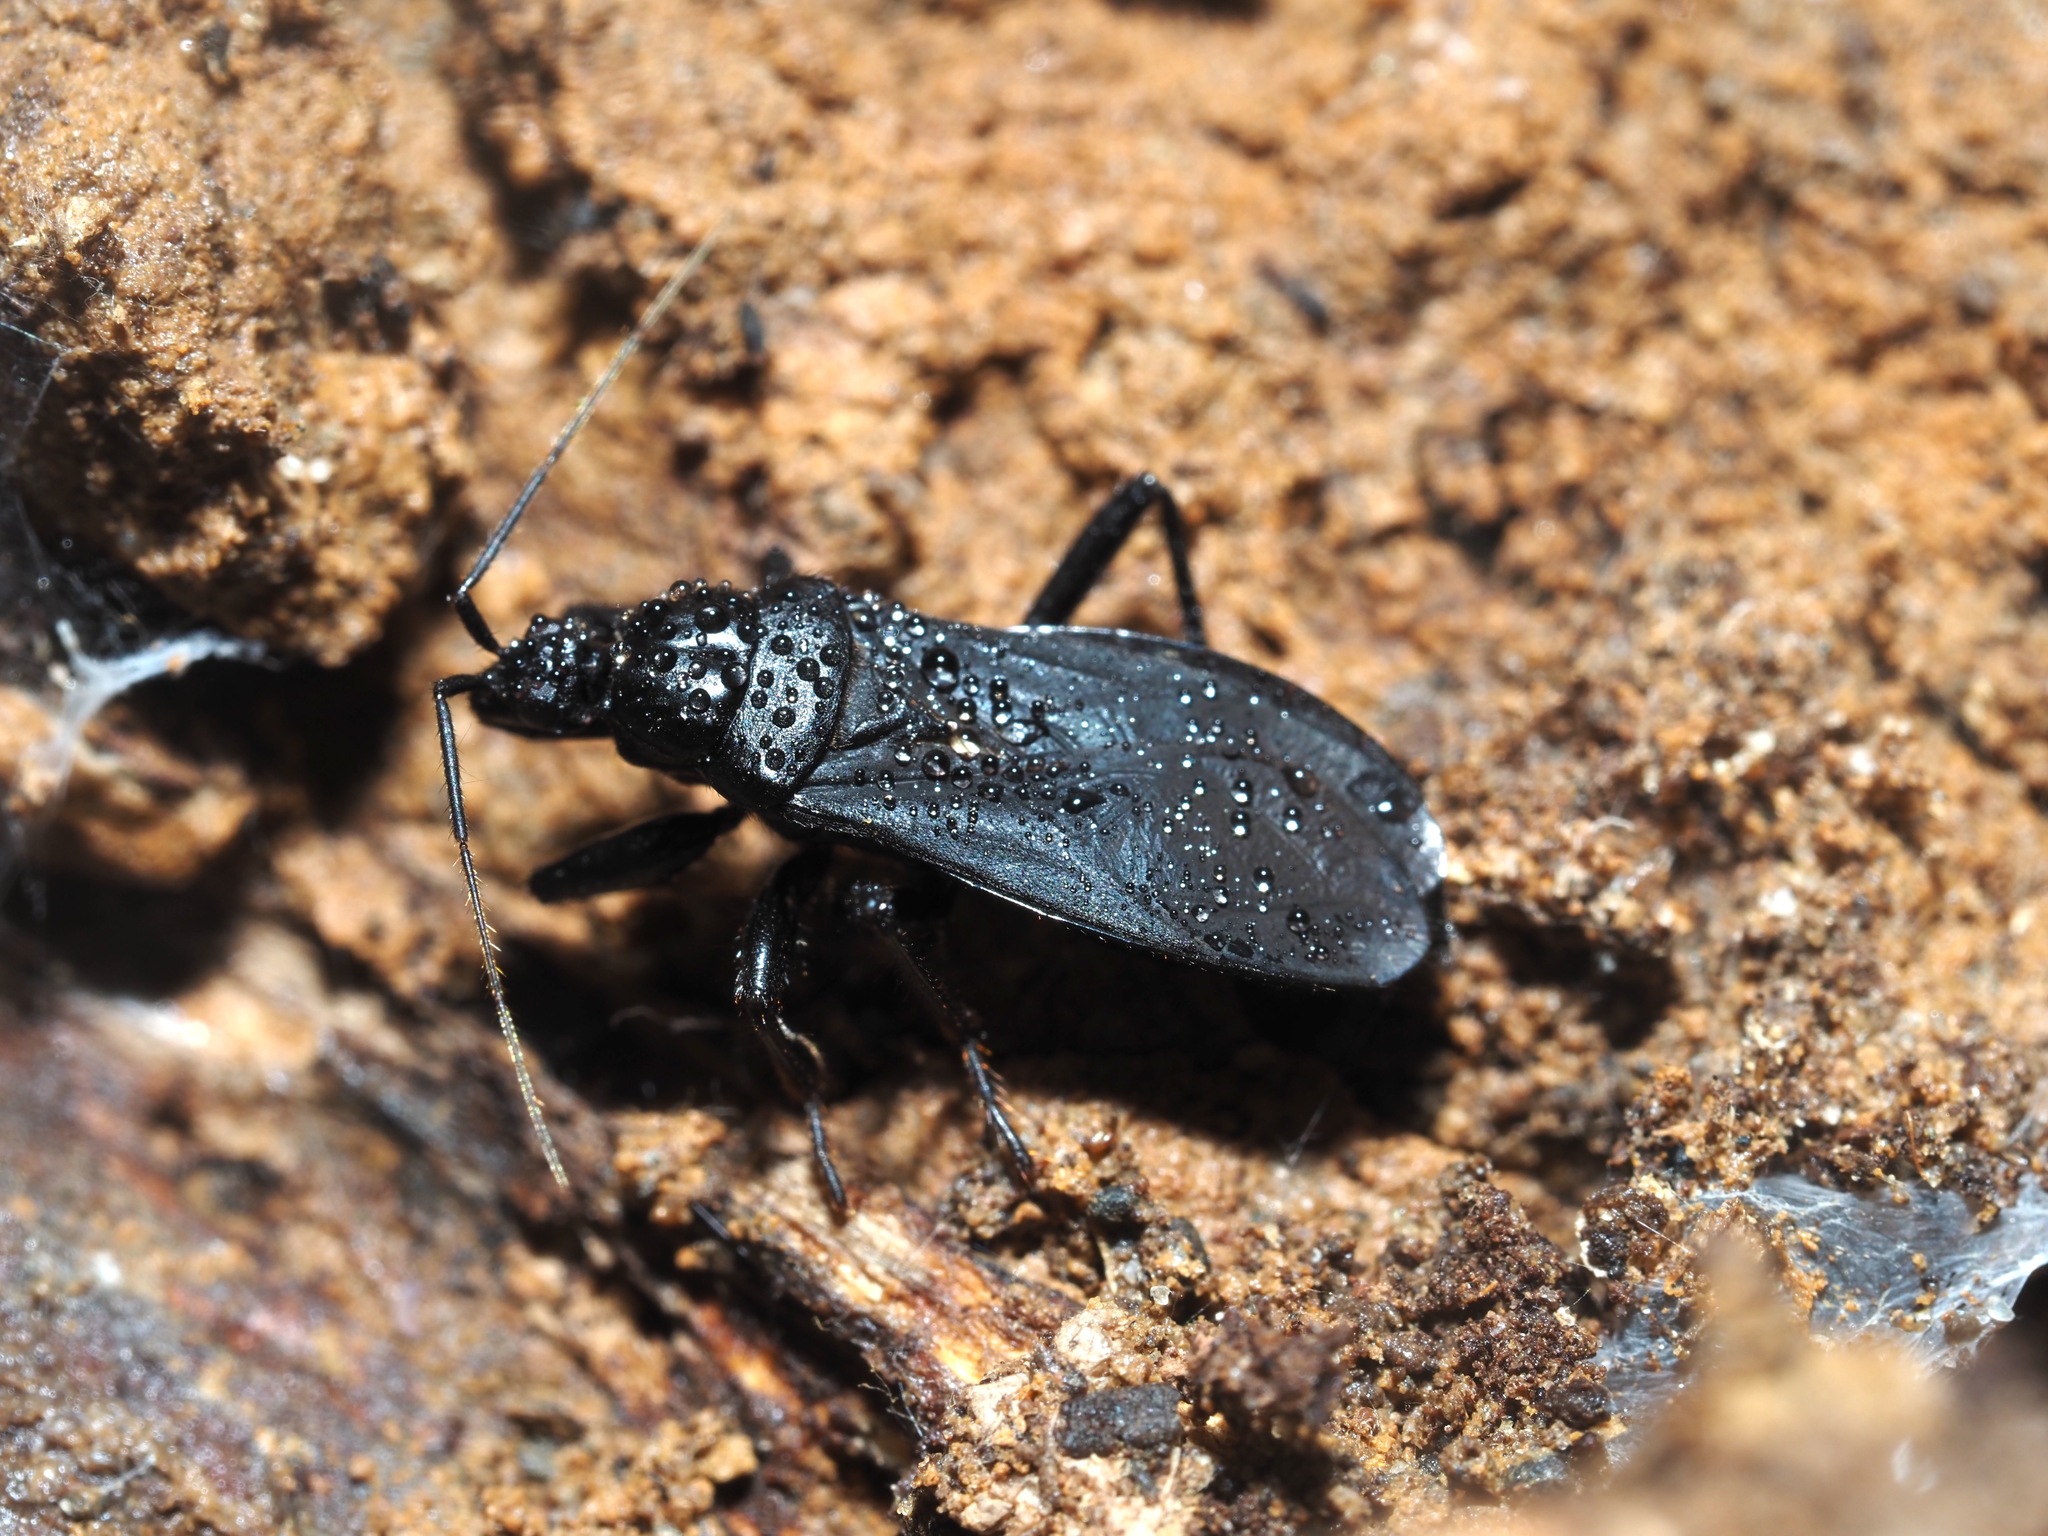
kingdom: Animalia
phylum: Arthropoda
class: Insecta
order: Hemiptera
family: Reduviidae
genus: Melanolestes
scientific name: Melanolestes picipes
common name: Assassin bug
